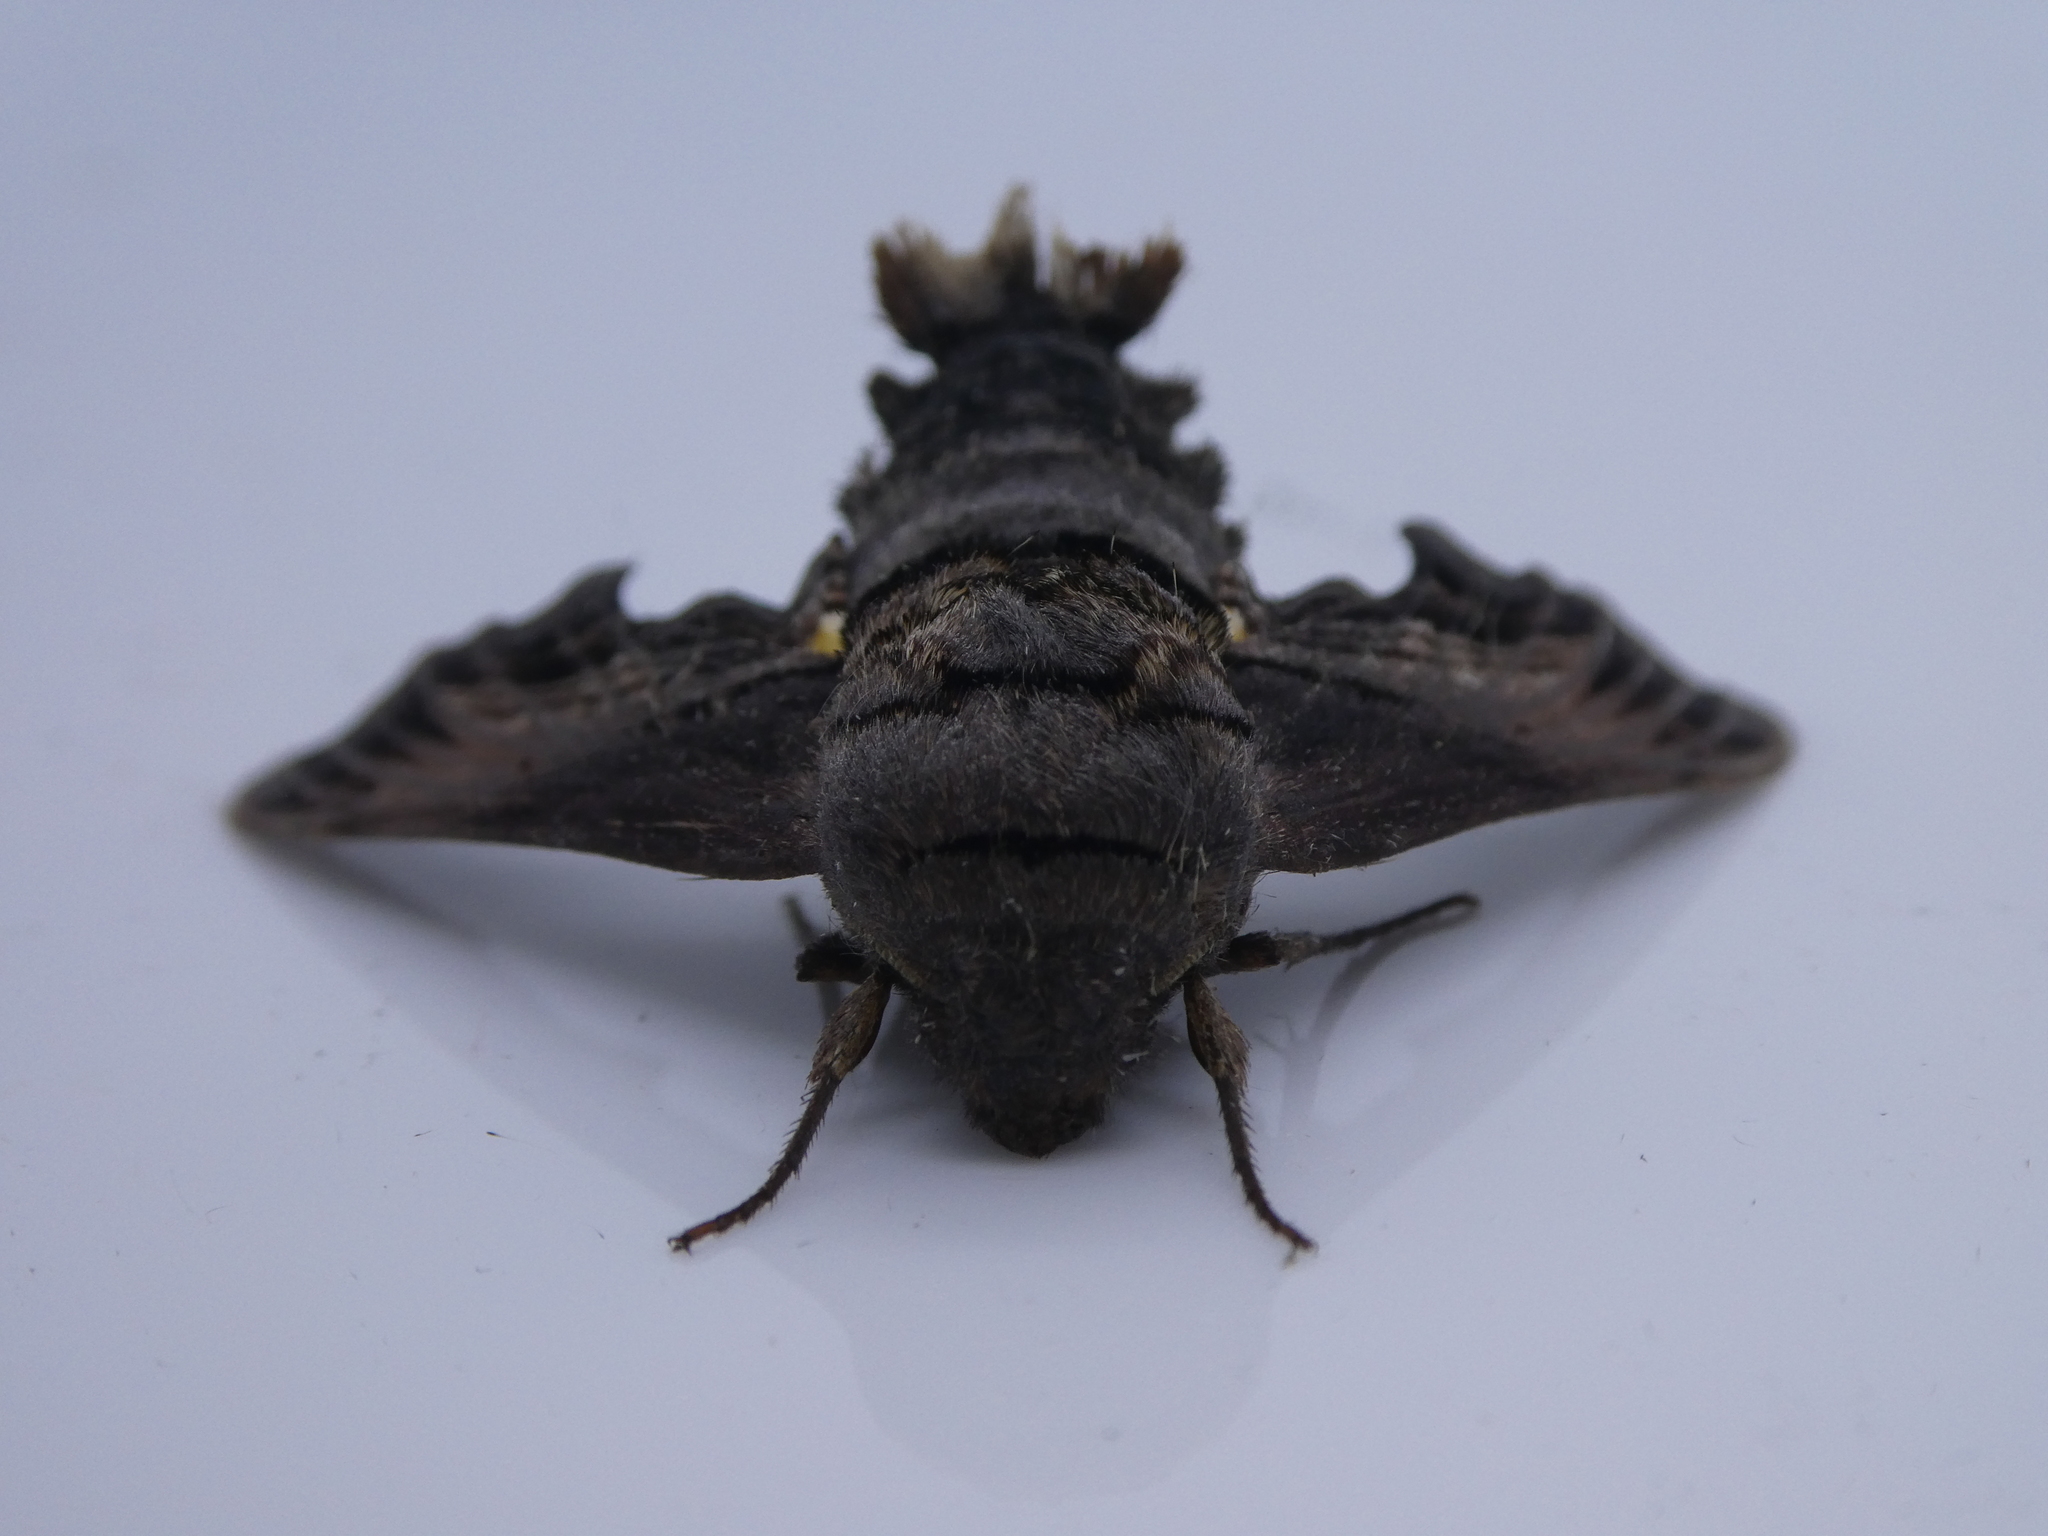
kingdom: Animalia
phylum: Arthropoda
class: Insecta
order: Lepidoptera
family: Sphingidae
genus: Sphecodina
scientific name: Sphecodina abbottii
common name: Abbott's sphinx
